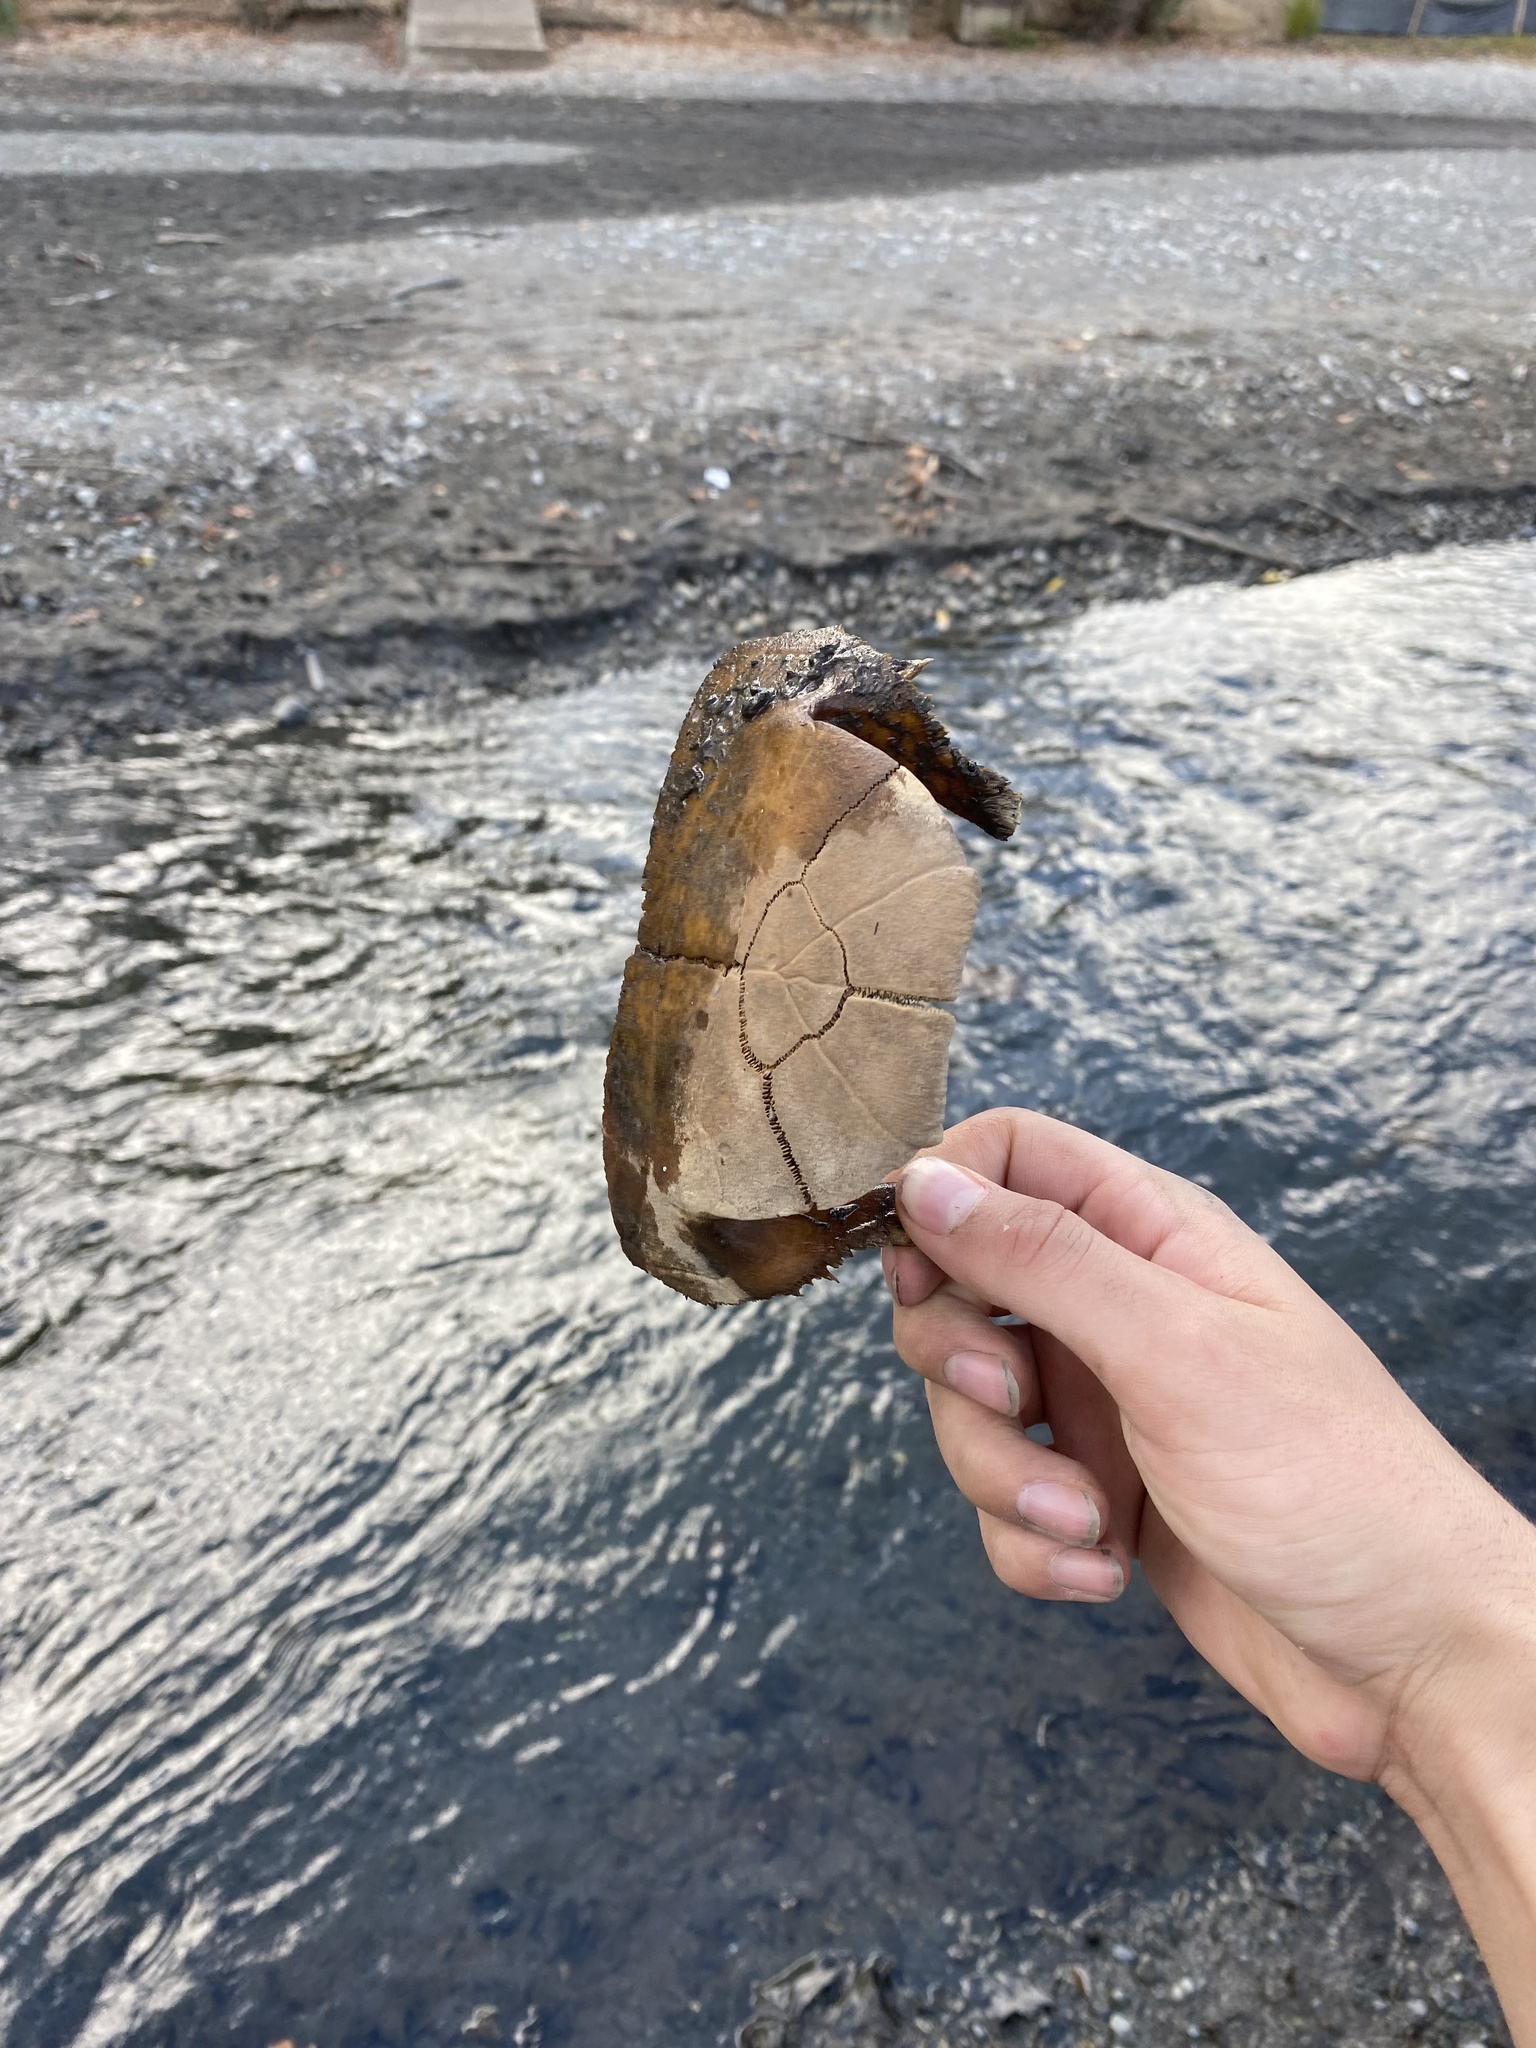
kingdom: Animalia
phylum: Chordata
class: Testudines
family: Emydidae
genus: Trachemys
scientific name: Trachemys scripta
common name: Slider
